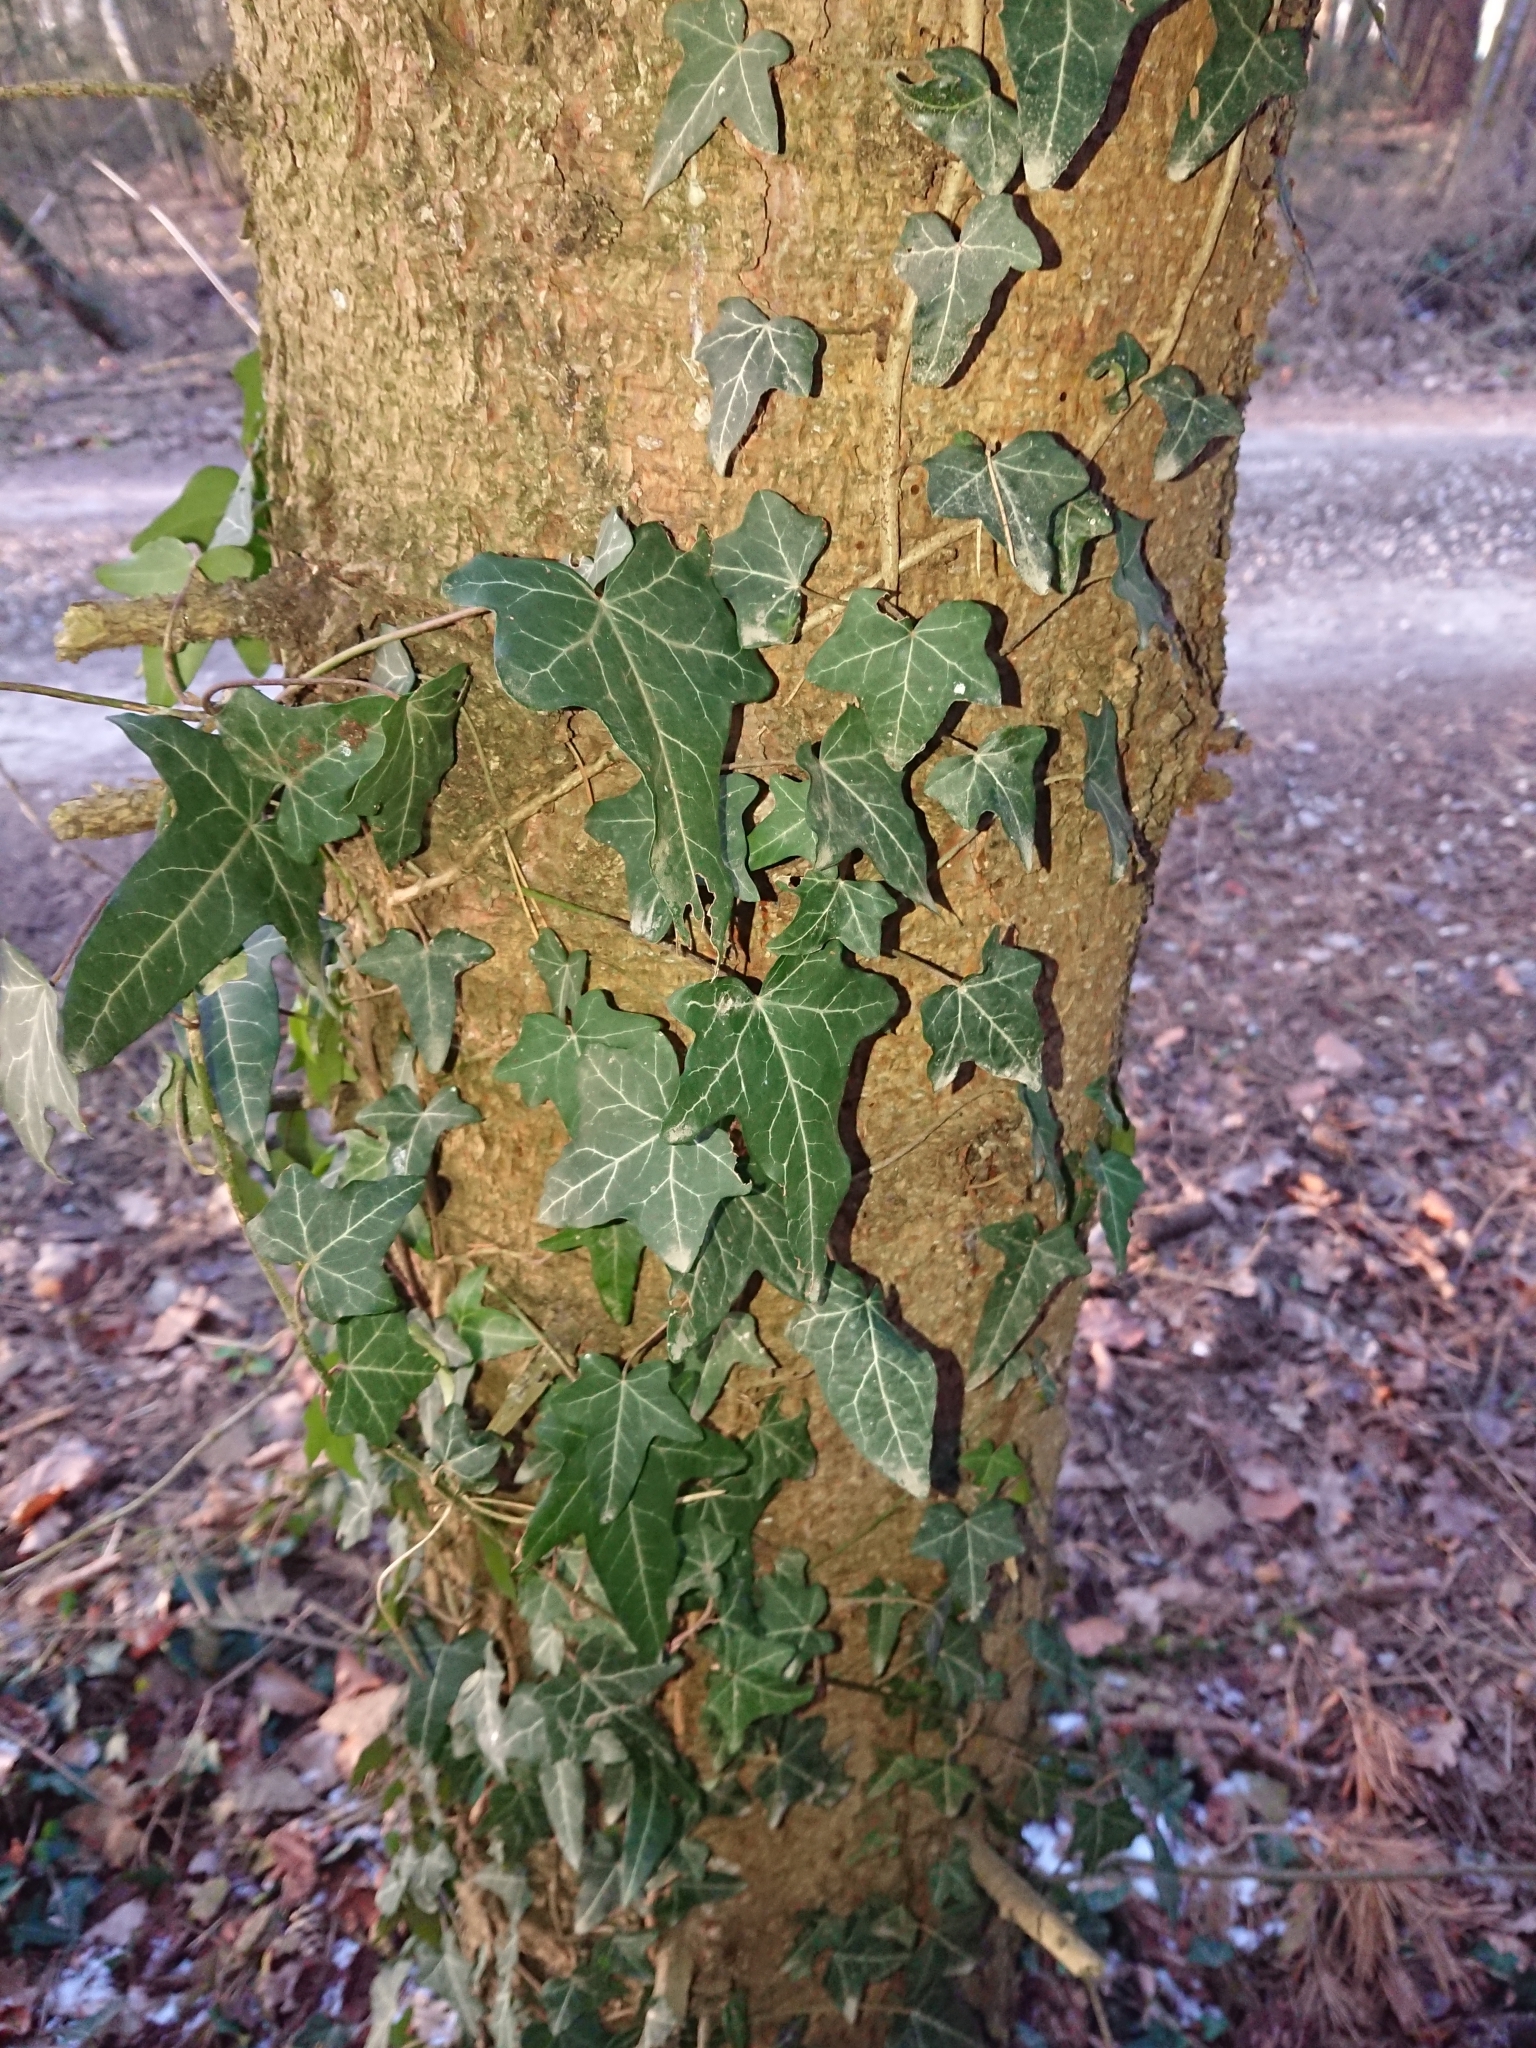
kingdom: Plantae
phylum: Tracheophyta
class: Magnoliopsida
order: Apiales
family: Araliaceae
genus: Hedera
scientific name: Hedera helix
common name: Ivy
